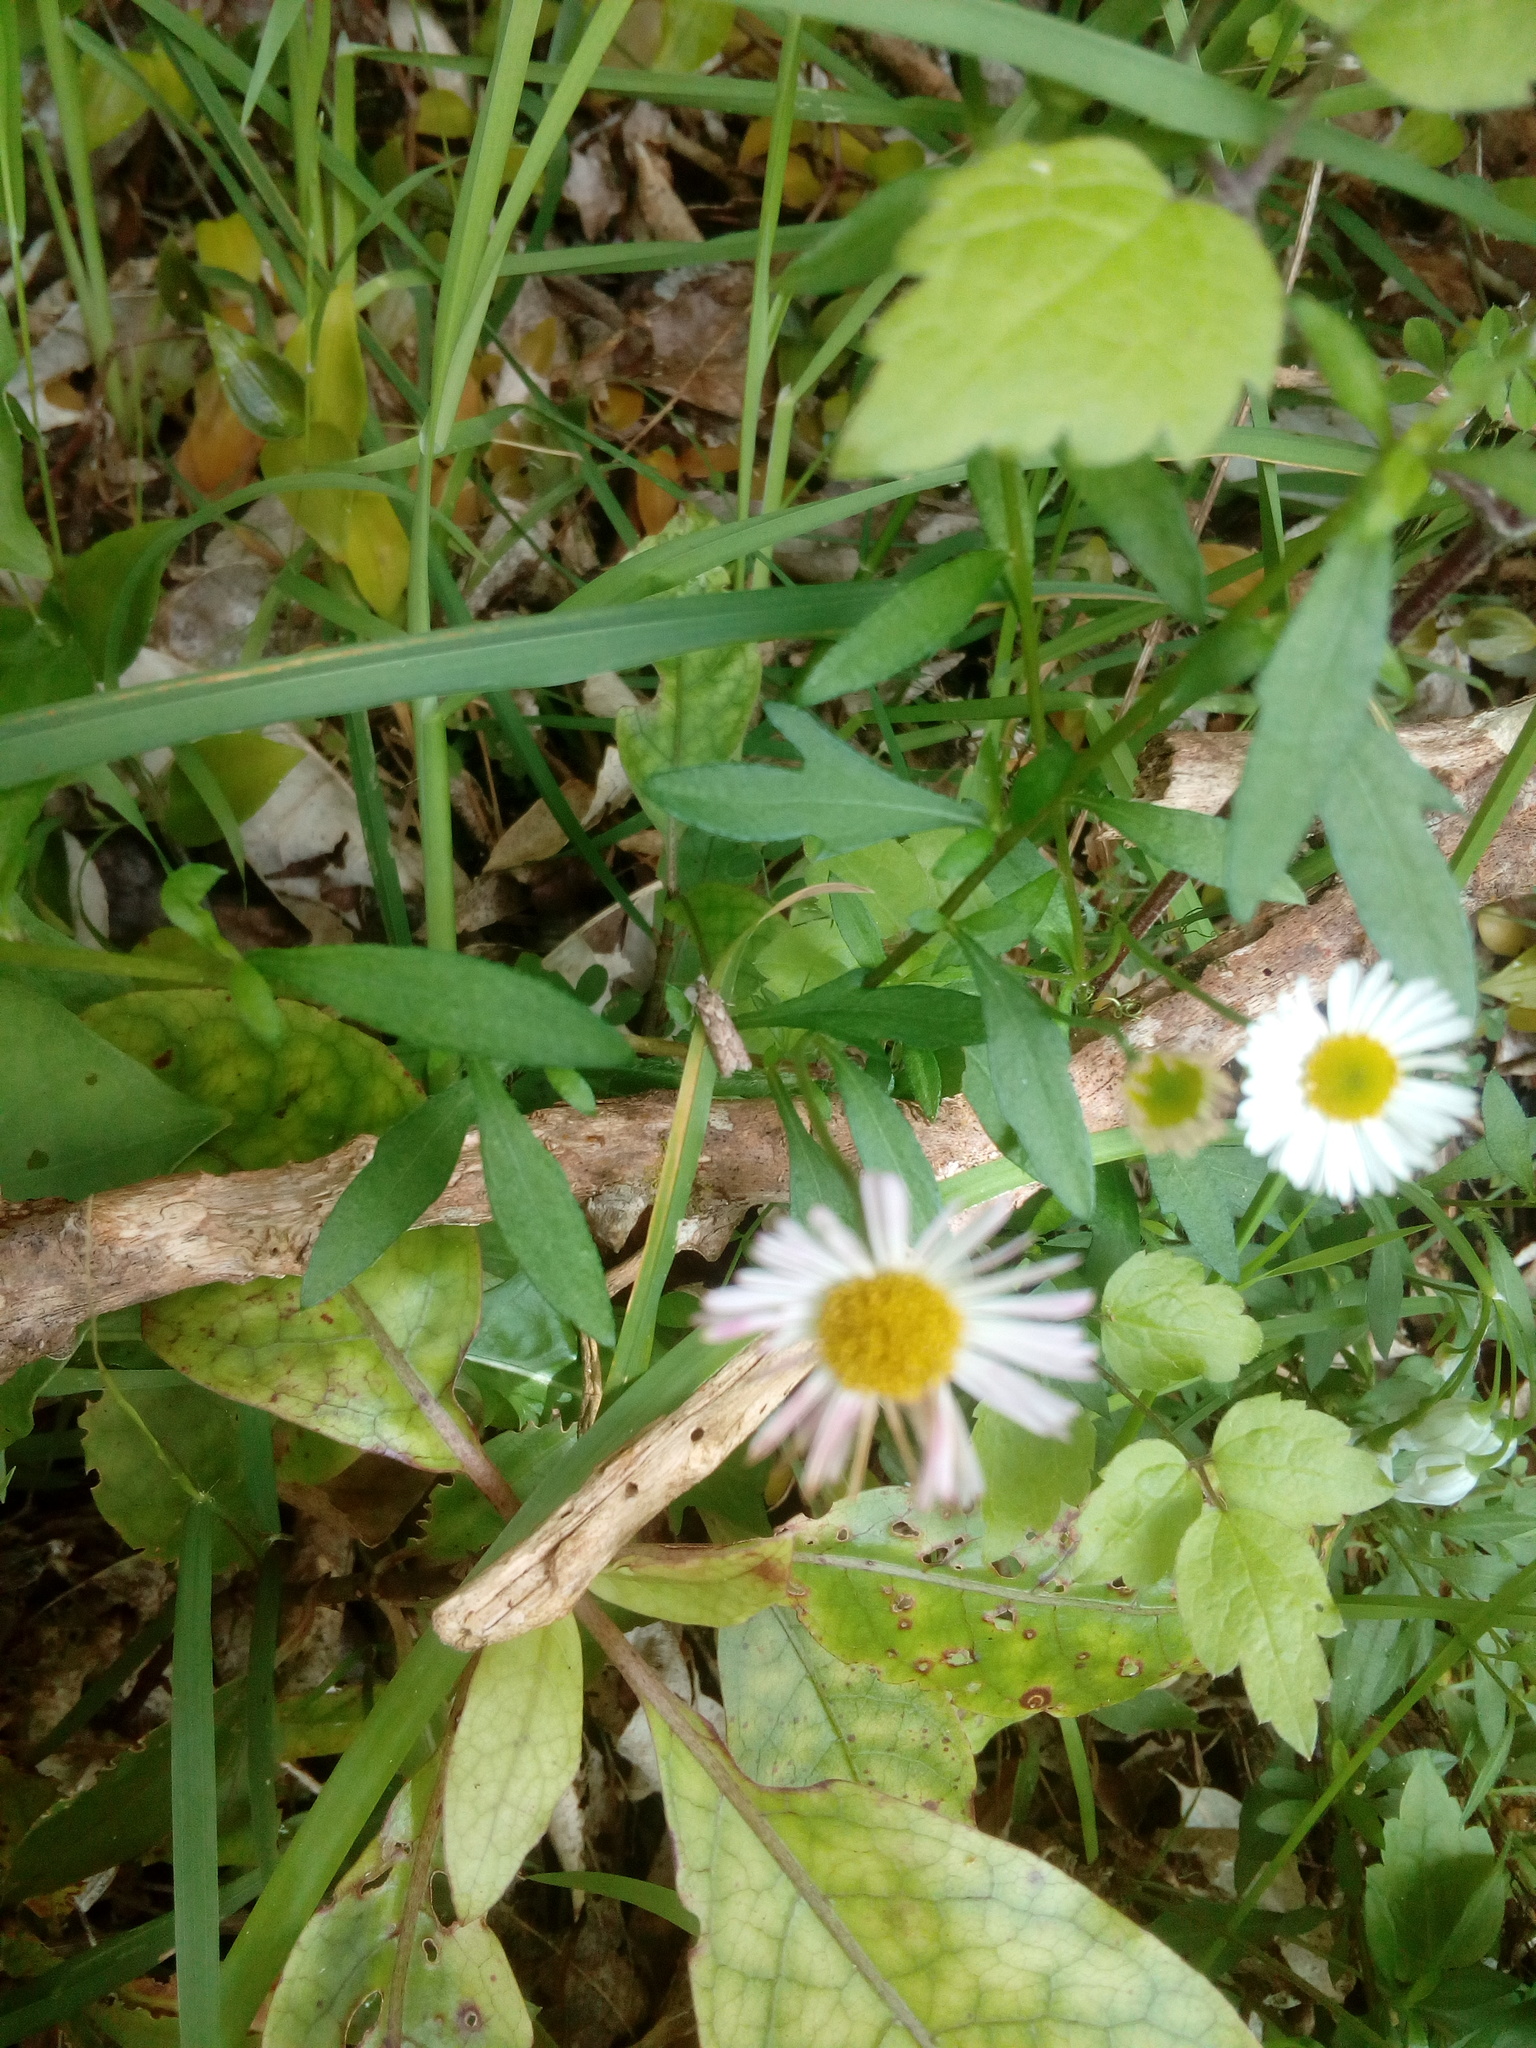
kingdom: Animalia
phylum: Arthropoda
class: Insecta
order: Lepidoptera
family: Oecophoridae
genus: Chersadaula
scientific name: Chersadaula ochrogastra
